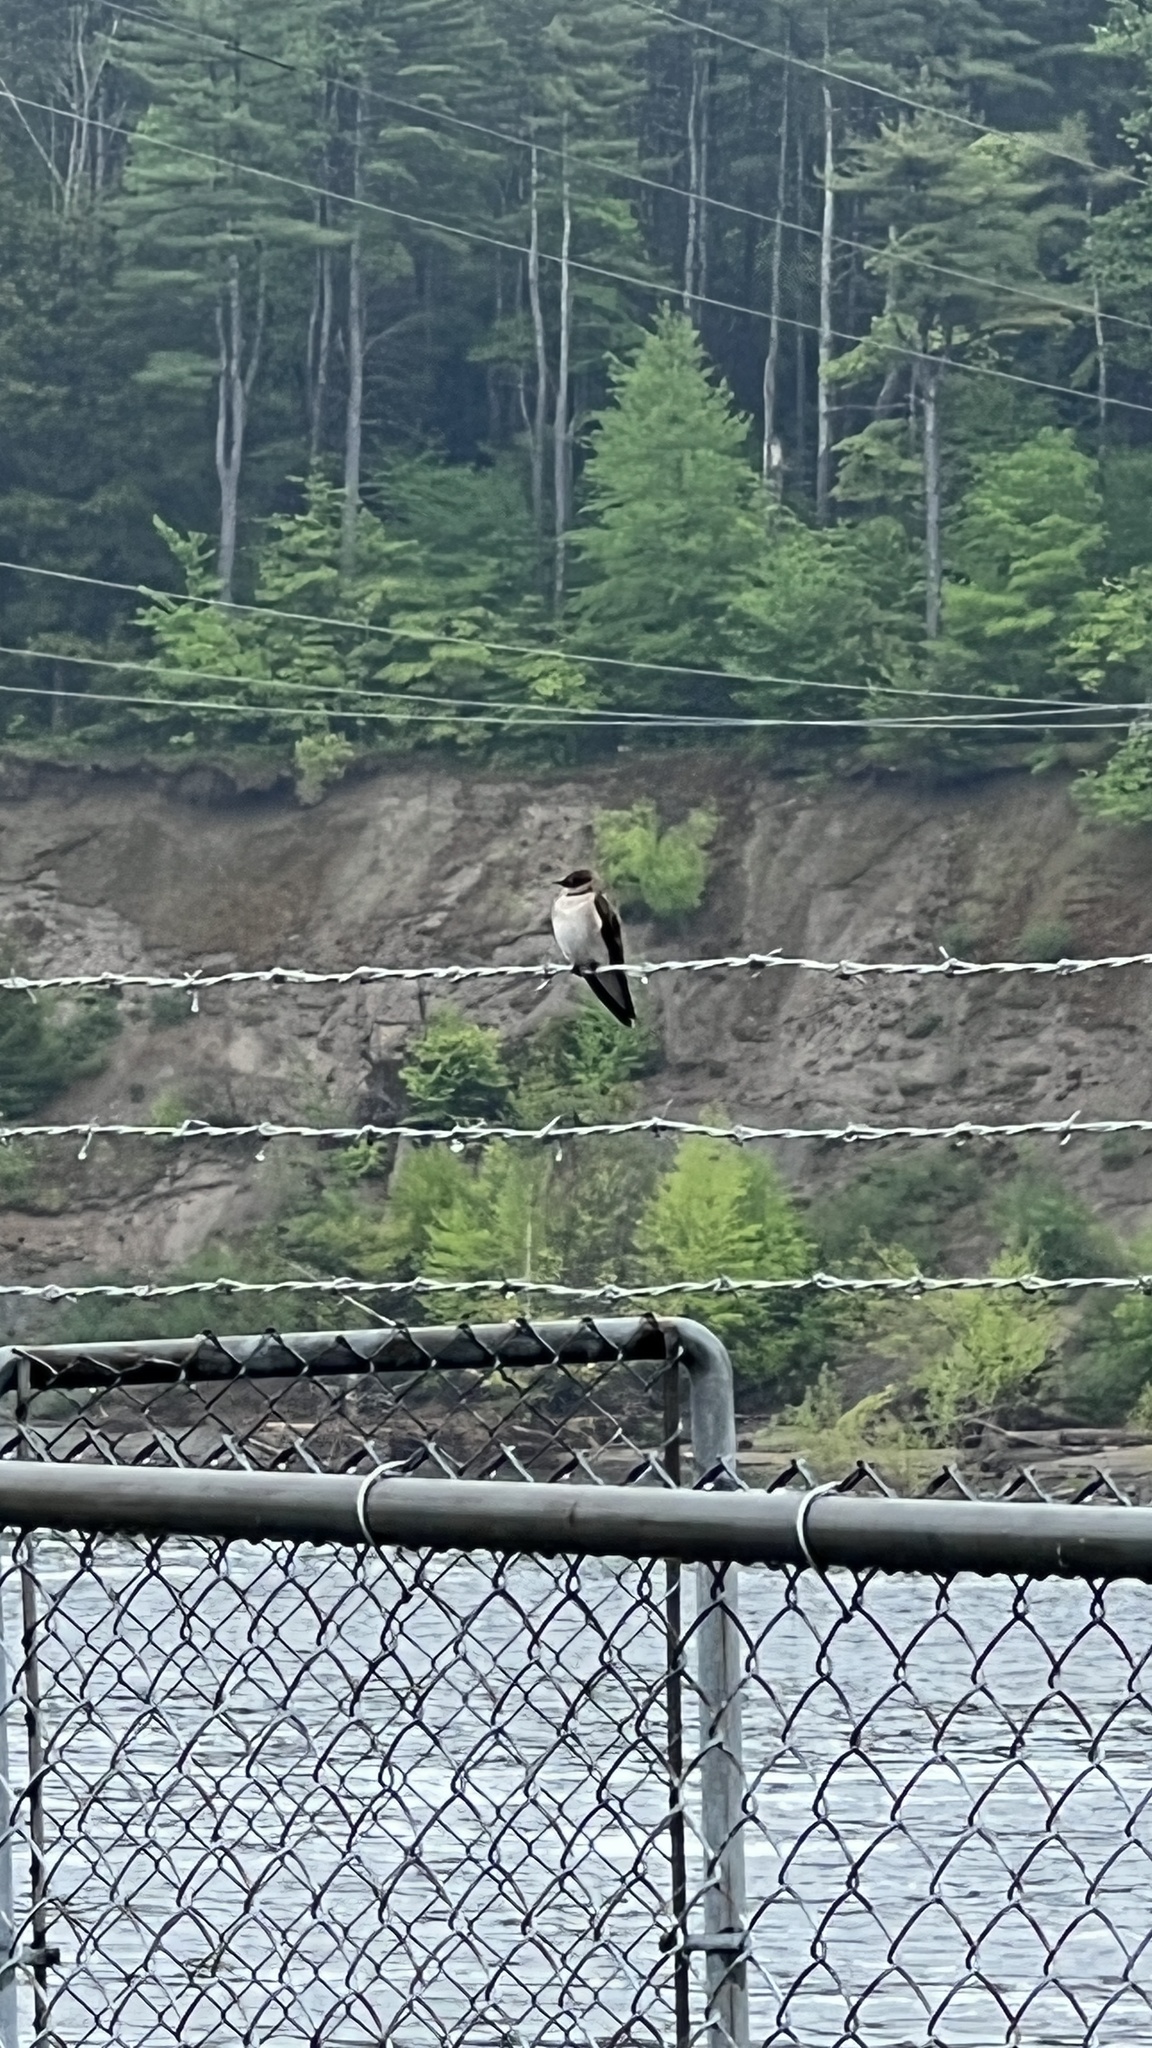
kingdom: Animalia
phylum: Chordata
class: Aves
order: Passeriformes
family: Hirundinidae
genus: Stelgidopteryx
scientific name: Stelgidopteryx serripennis
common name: Northern rough-winged swallow
